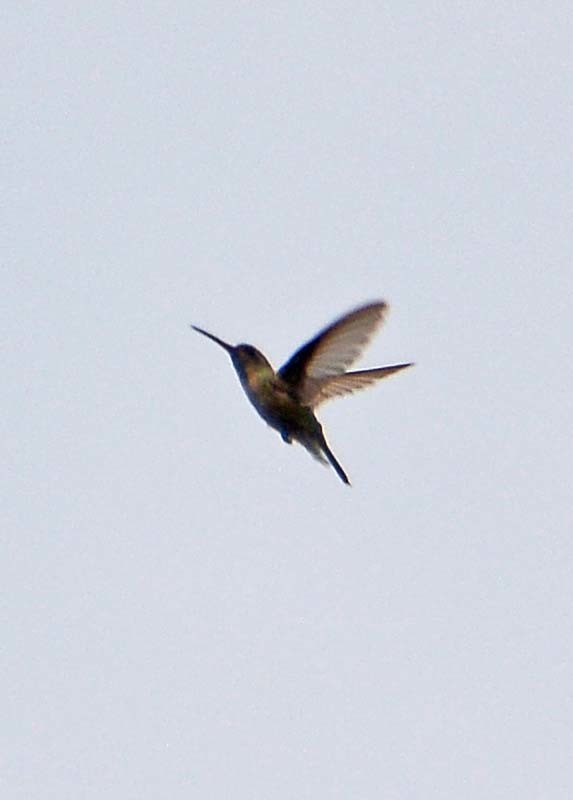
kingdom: Animalia
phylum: Chordata
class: Aves
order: Apodiformes
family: Trochilidae
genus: Cynanthus
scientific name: Cynanthus latirostris
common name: Broad-billed hummingbird
